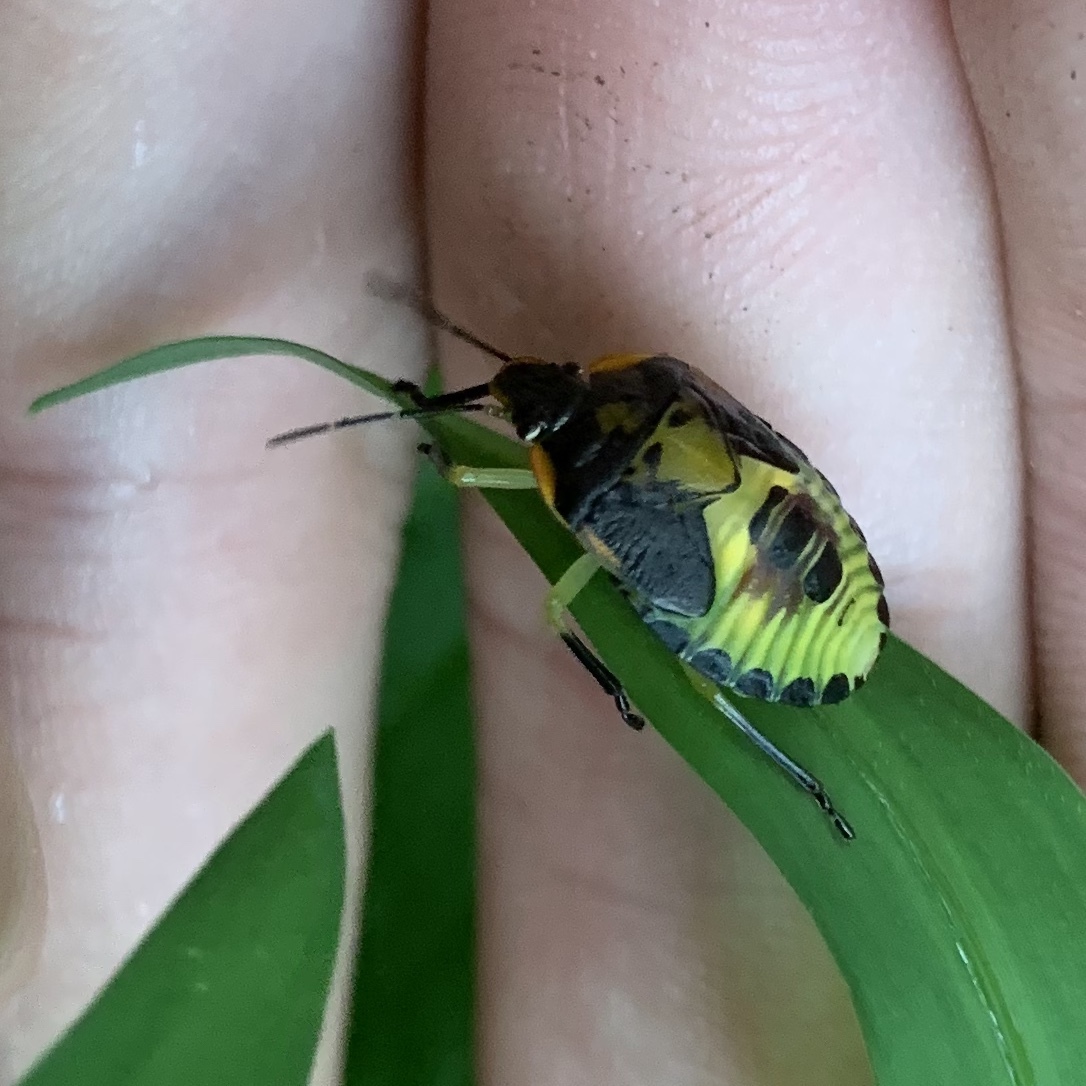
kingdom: Animalia
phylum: Arthropoda
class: Insecta
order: Hemiptera
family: Pentatomidae
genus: Chinavia
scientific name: Chinavia hilaris
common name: Green stink bug
